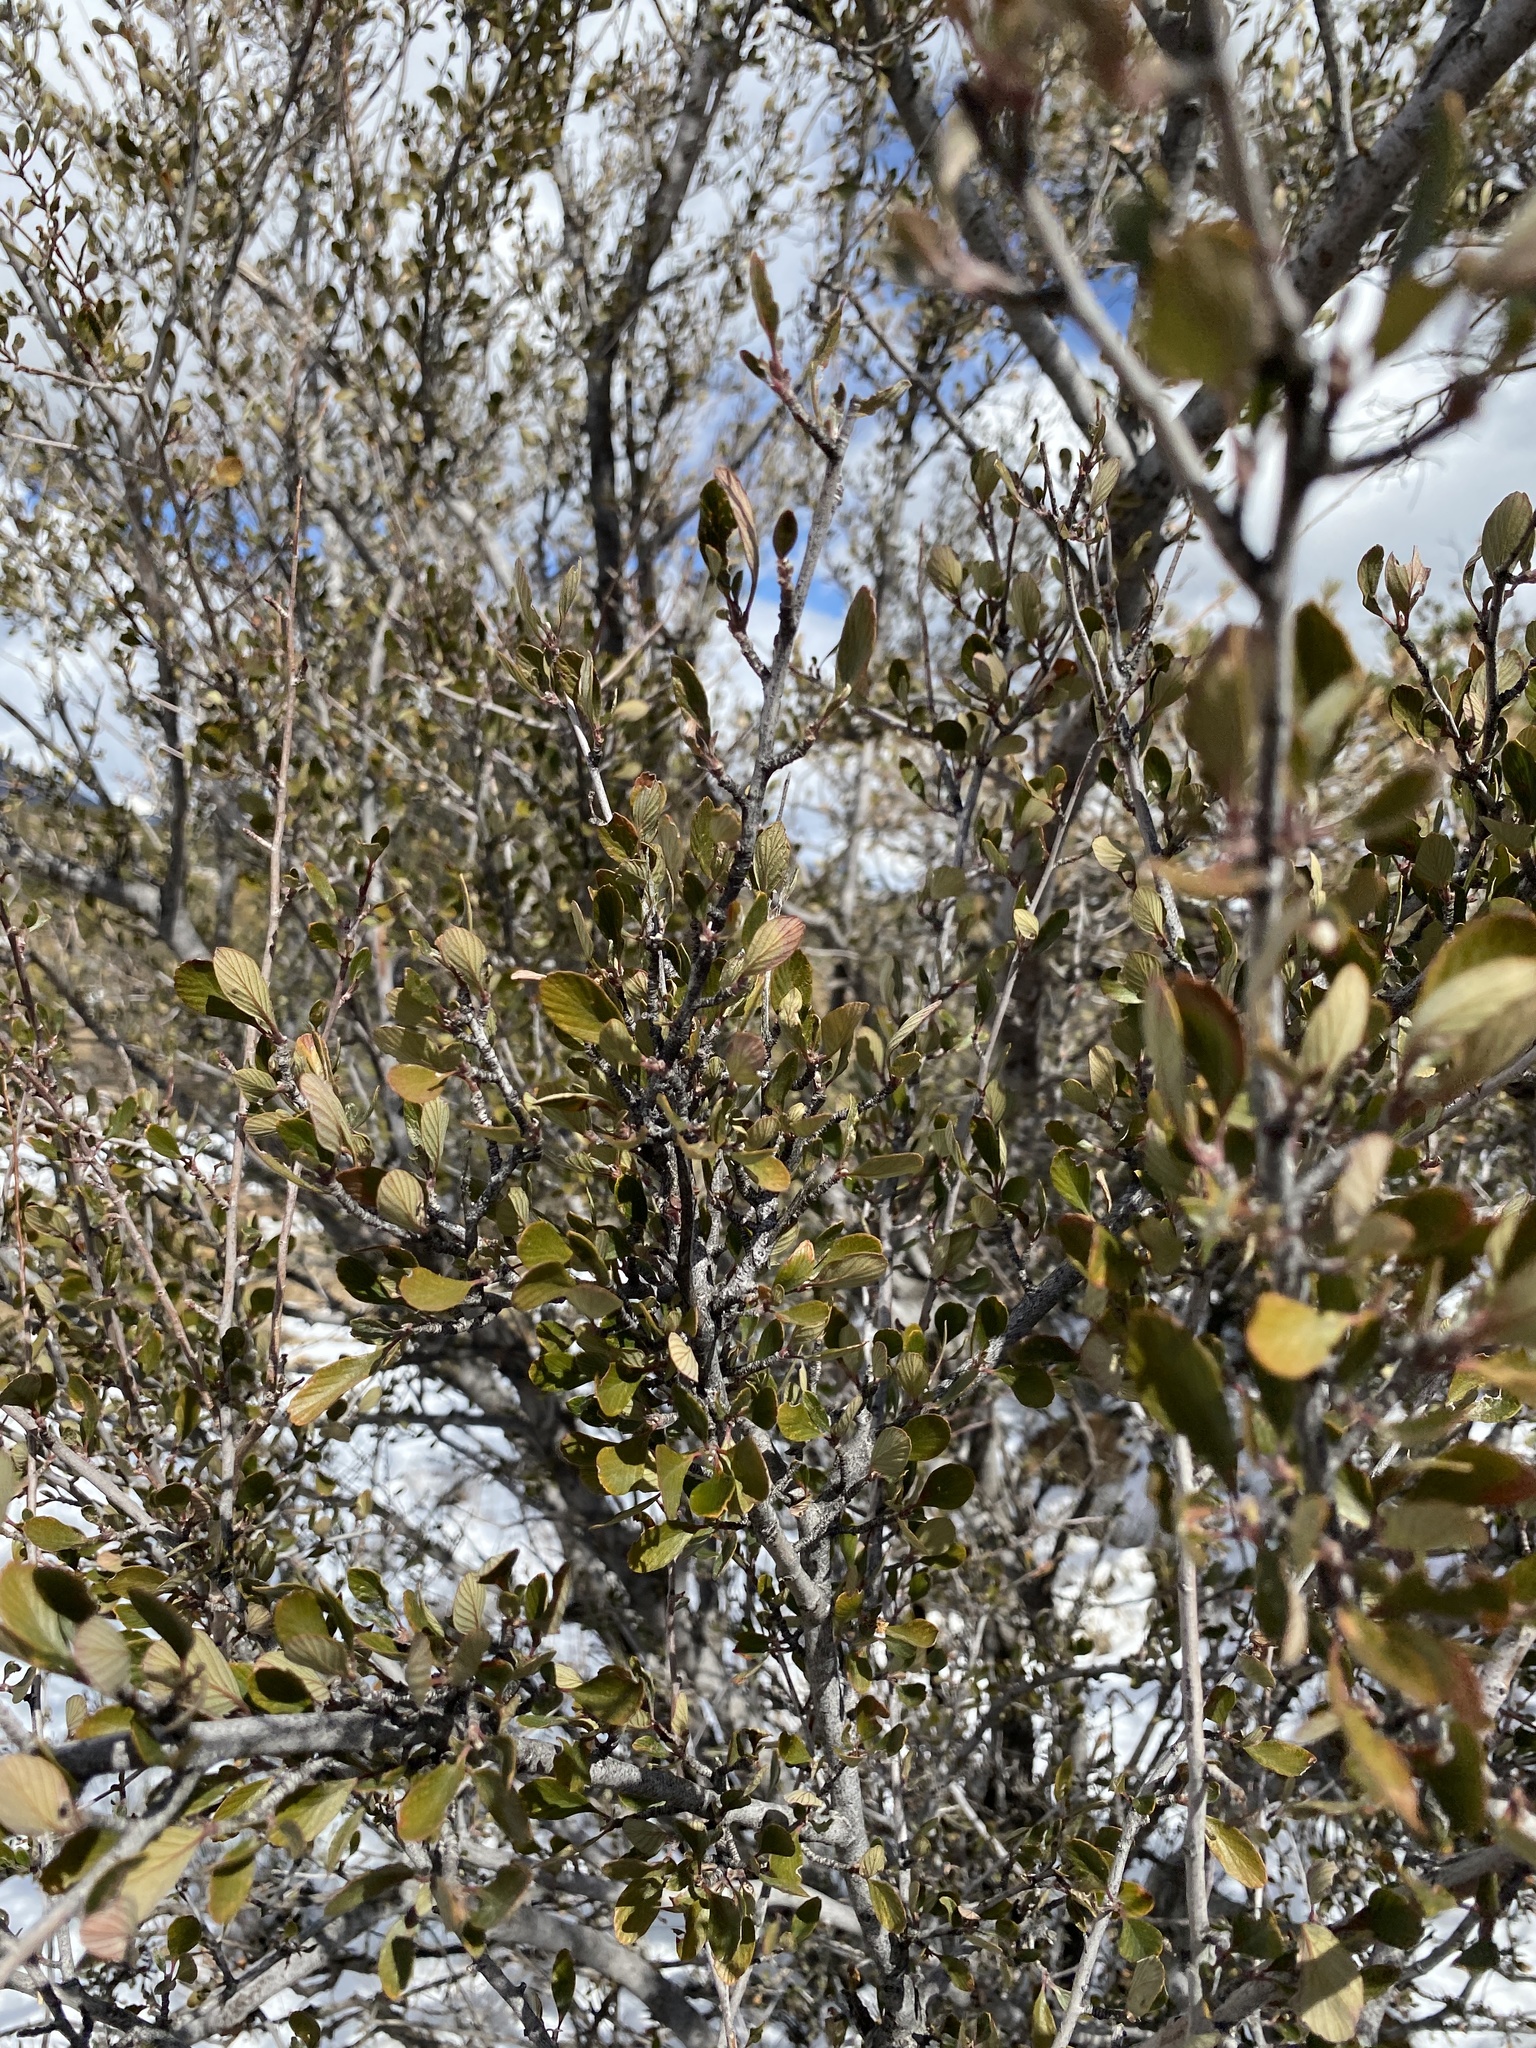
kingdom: Plantae
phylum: Tracheophyta
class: Magnoliopsida
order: Rosales
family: Rosaceae
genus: Cercocarpus
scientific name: Cercocarpus breviflorus
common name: Wright's mountain-mahogany
